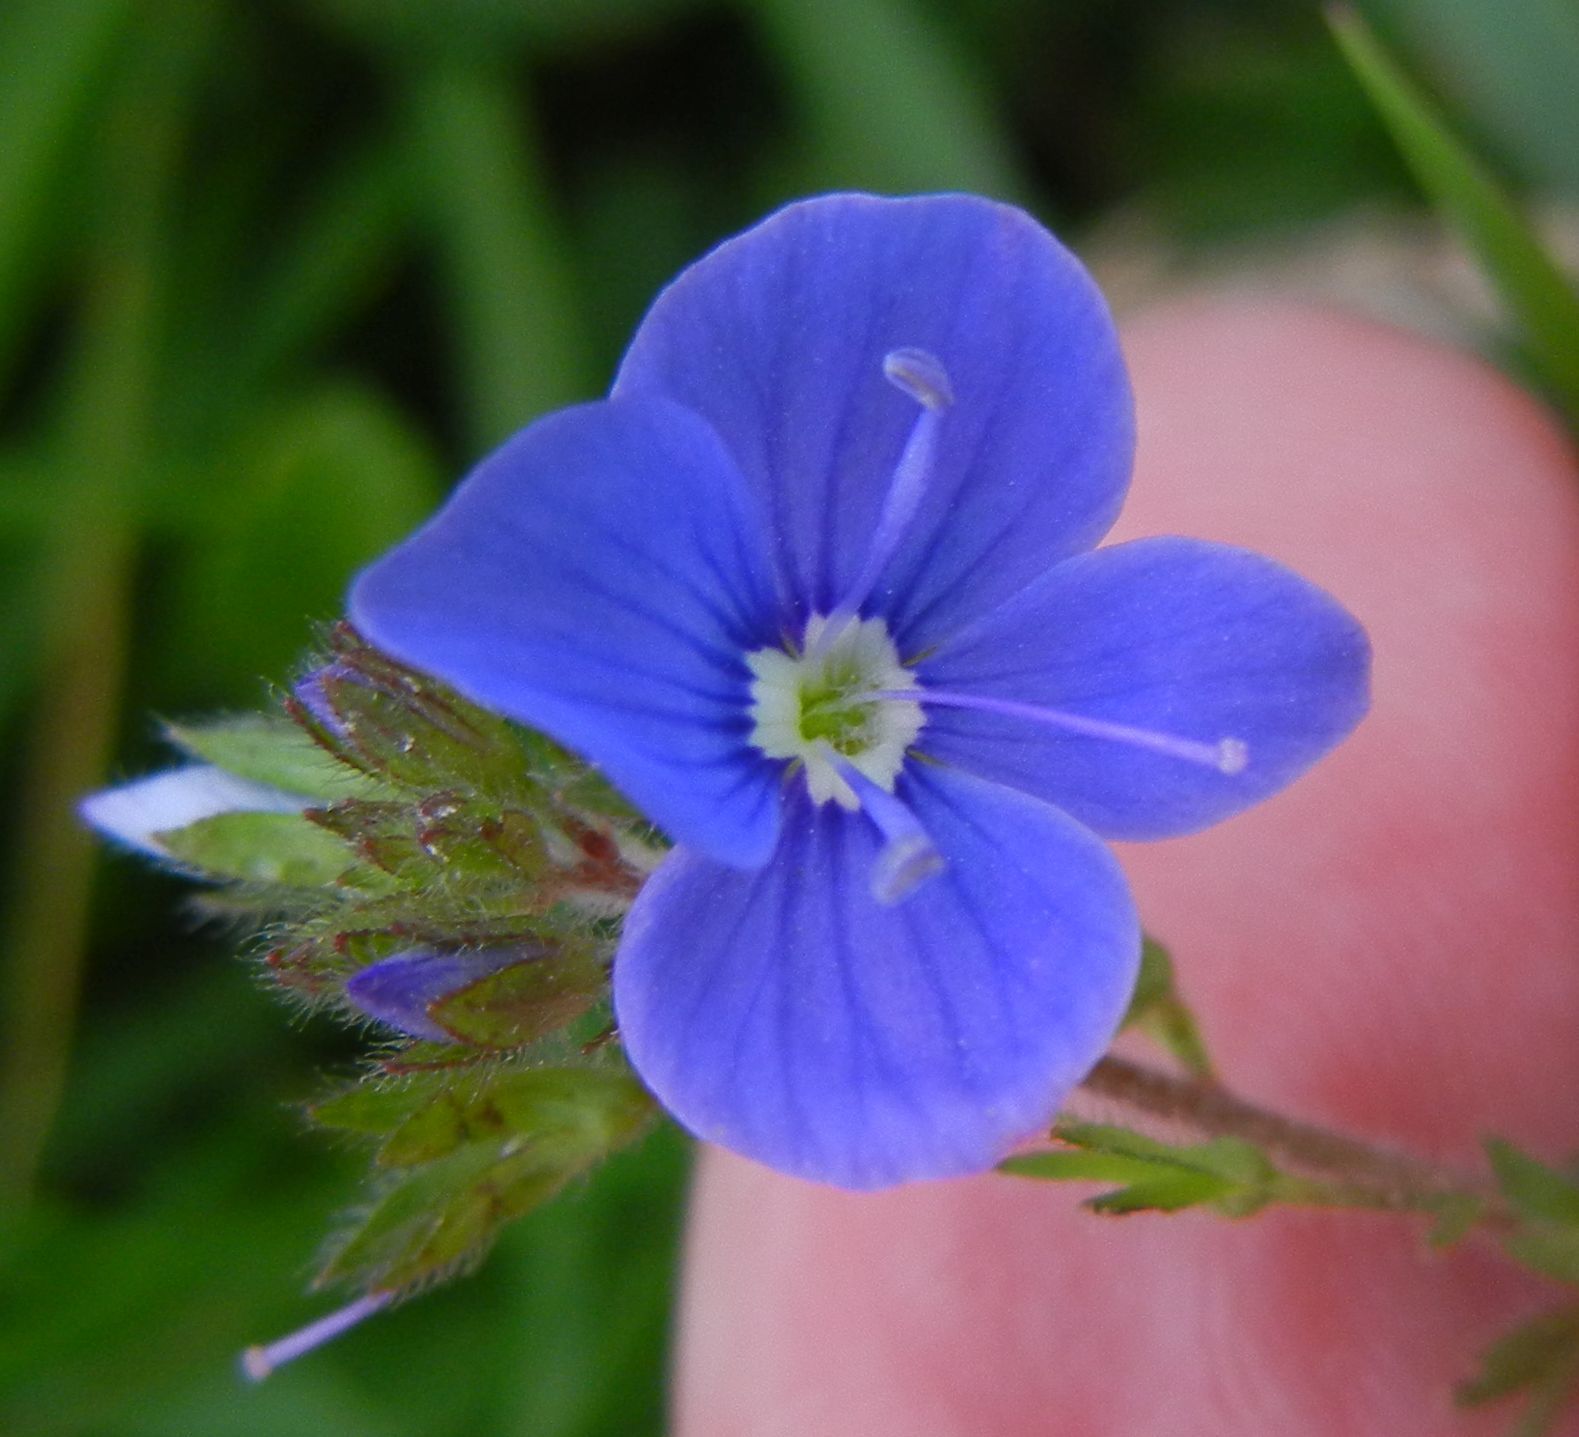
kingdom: Plantae
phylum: Tracheophyta
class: Magnoliopsida
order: Lamiales
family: Plantaginaceae
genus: Veronica
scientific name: Veronica chamaedrys
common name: Germander speedwell
